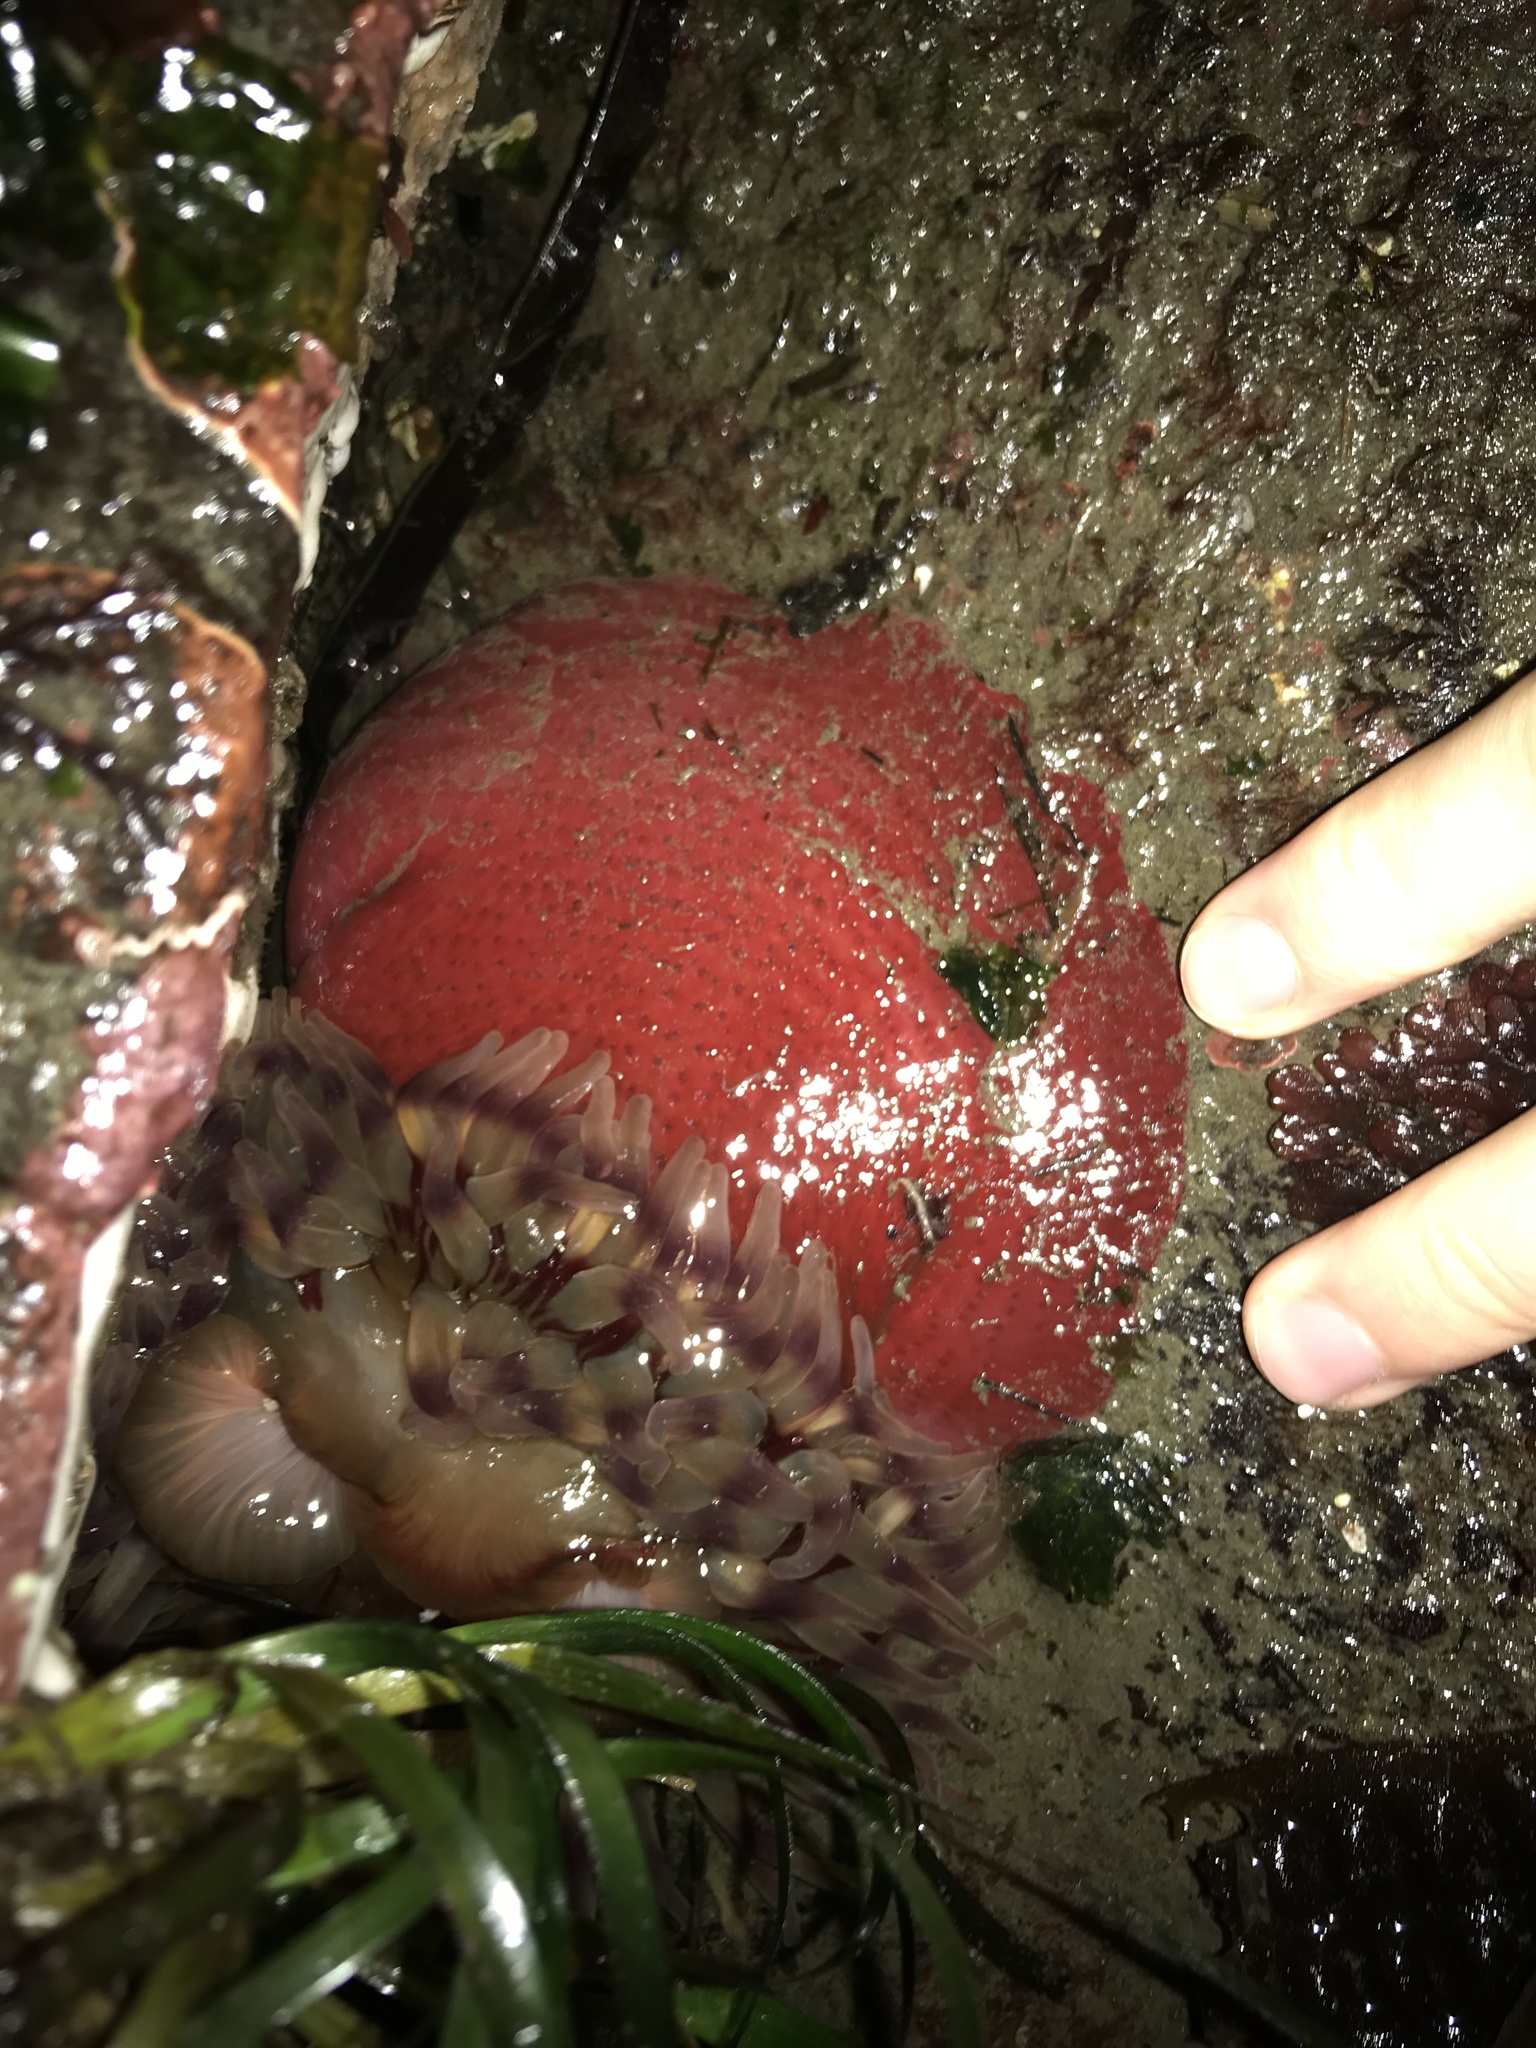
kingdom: Animalia
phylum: Cnidaria
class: Anthozoa
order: Actiniaria
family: Actiniidae
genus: Urticina
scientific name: Urticina grebelnyi
